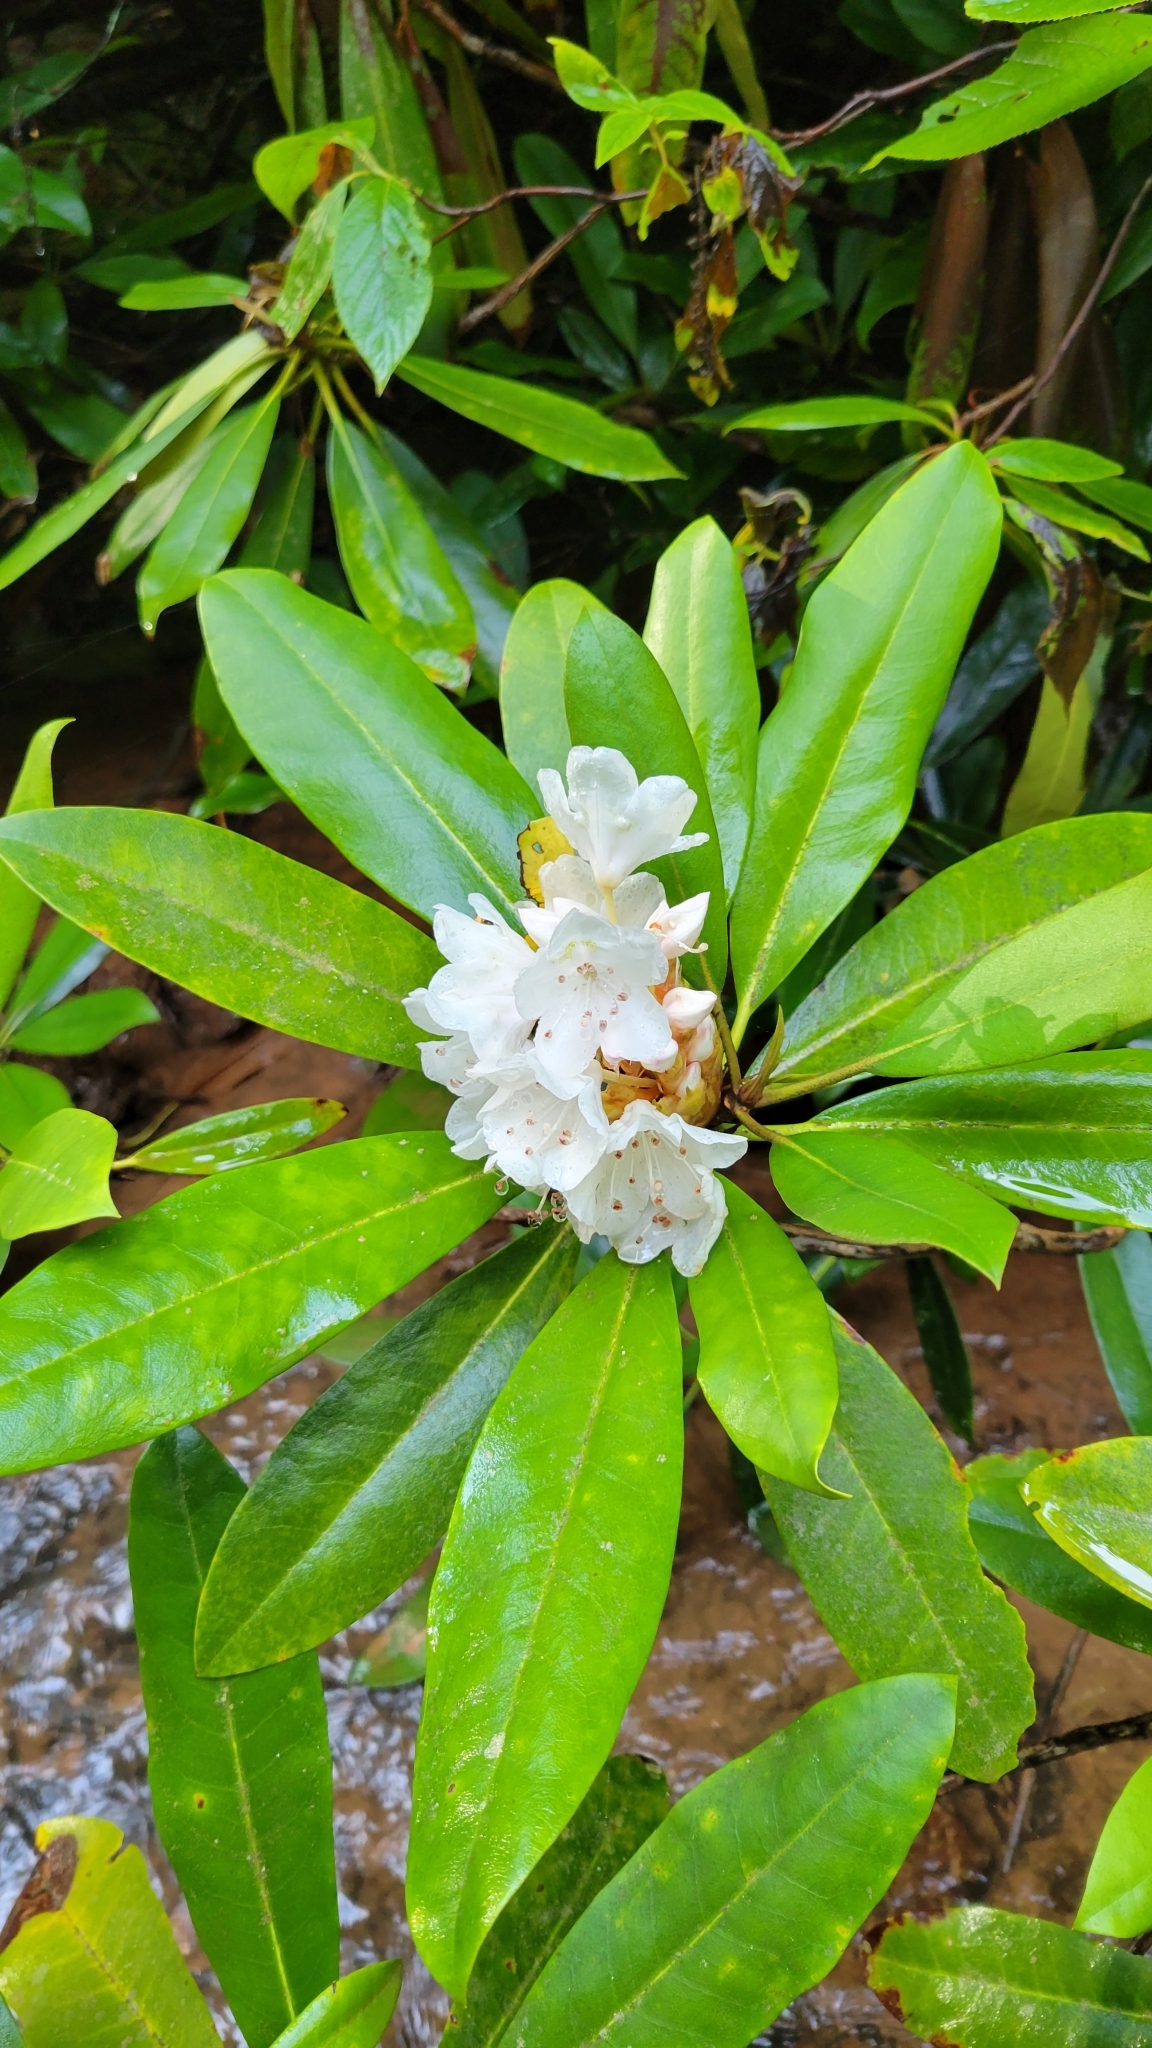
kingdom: Plantae
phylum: Tracheophyta
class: Magnoliopsida
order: Ericales
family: Ericaceae
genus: Rhododendron
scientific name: Rhododendron maximum
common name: Great rhododendron
